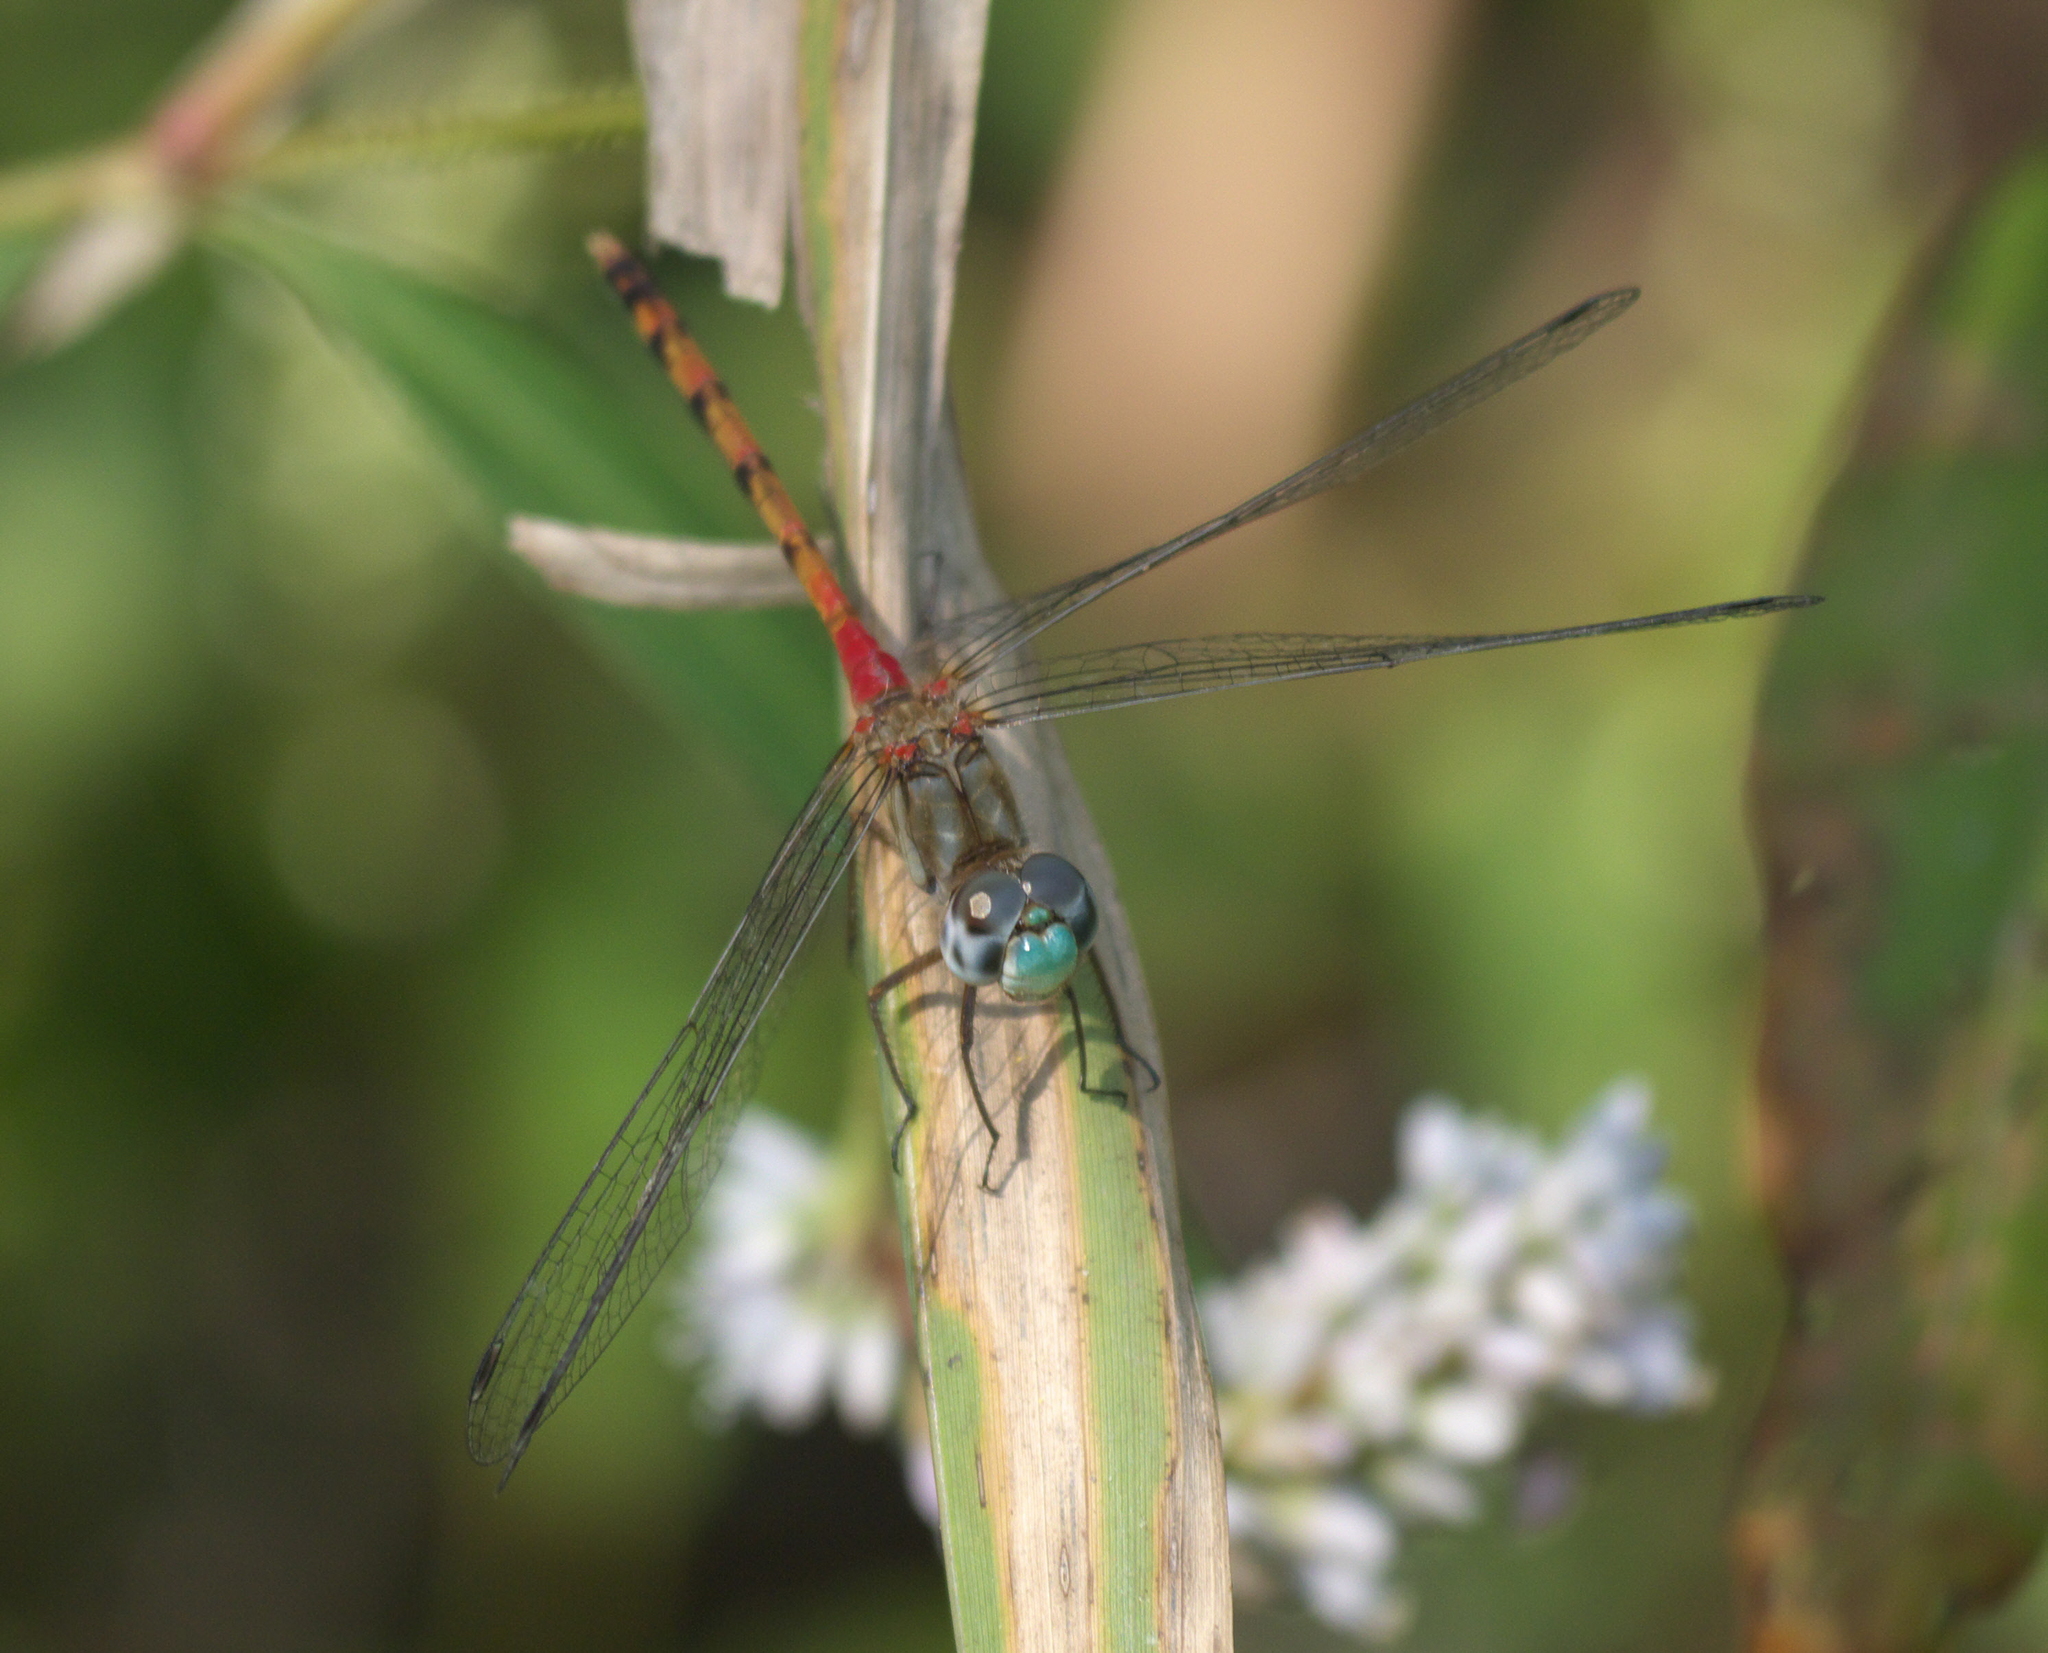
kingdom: Animalia
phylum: Arthropoda
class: Insecta
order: Odonata
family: Libellulidae
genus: Sympetrum
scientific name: Sympetrum ambiguum
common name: Blue-faced meadowhawk
